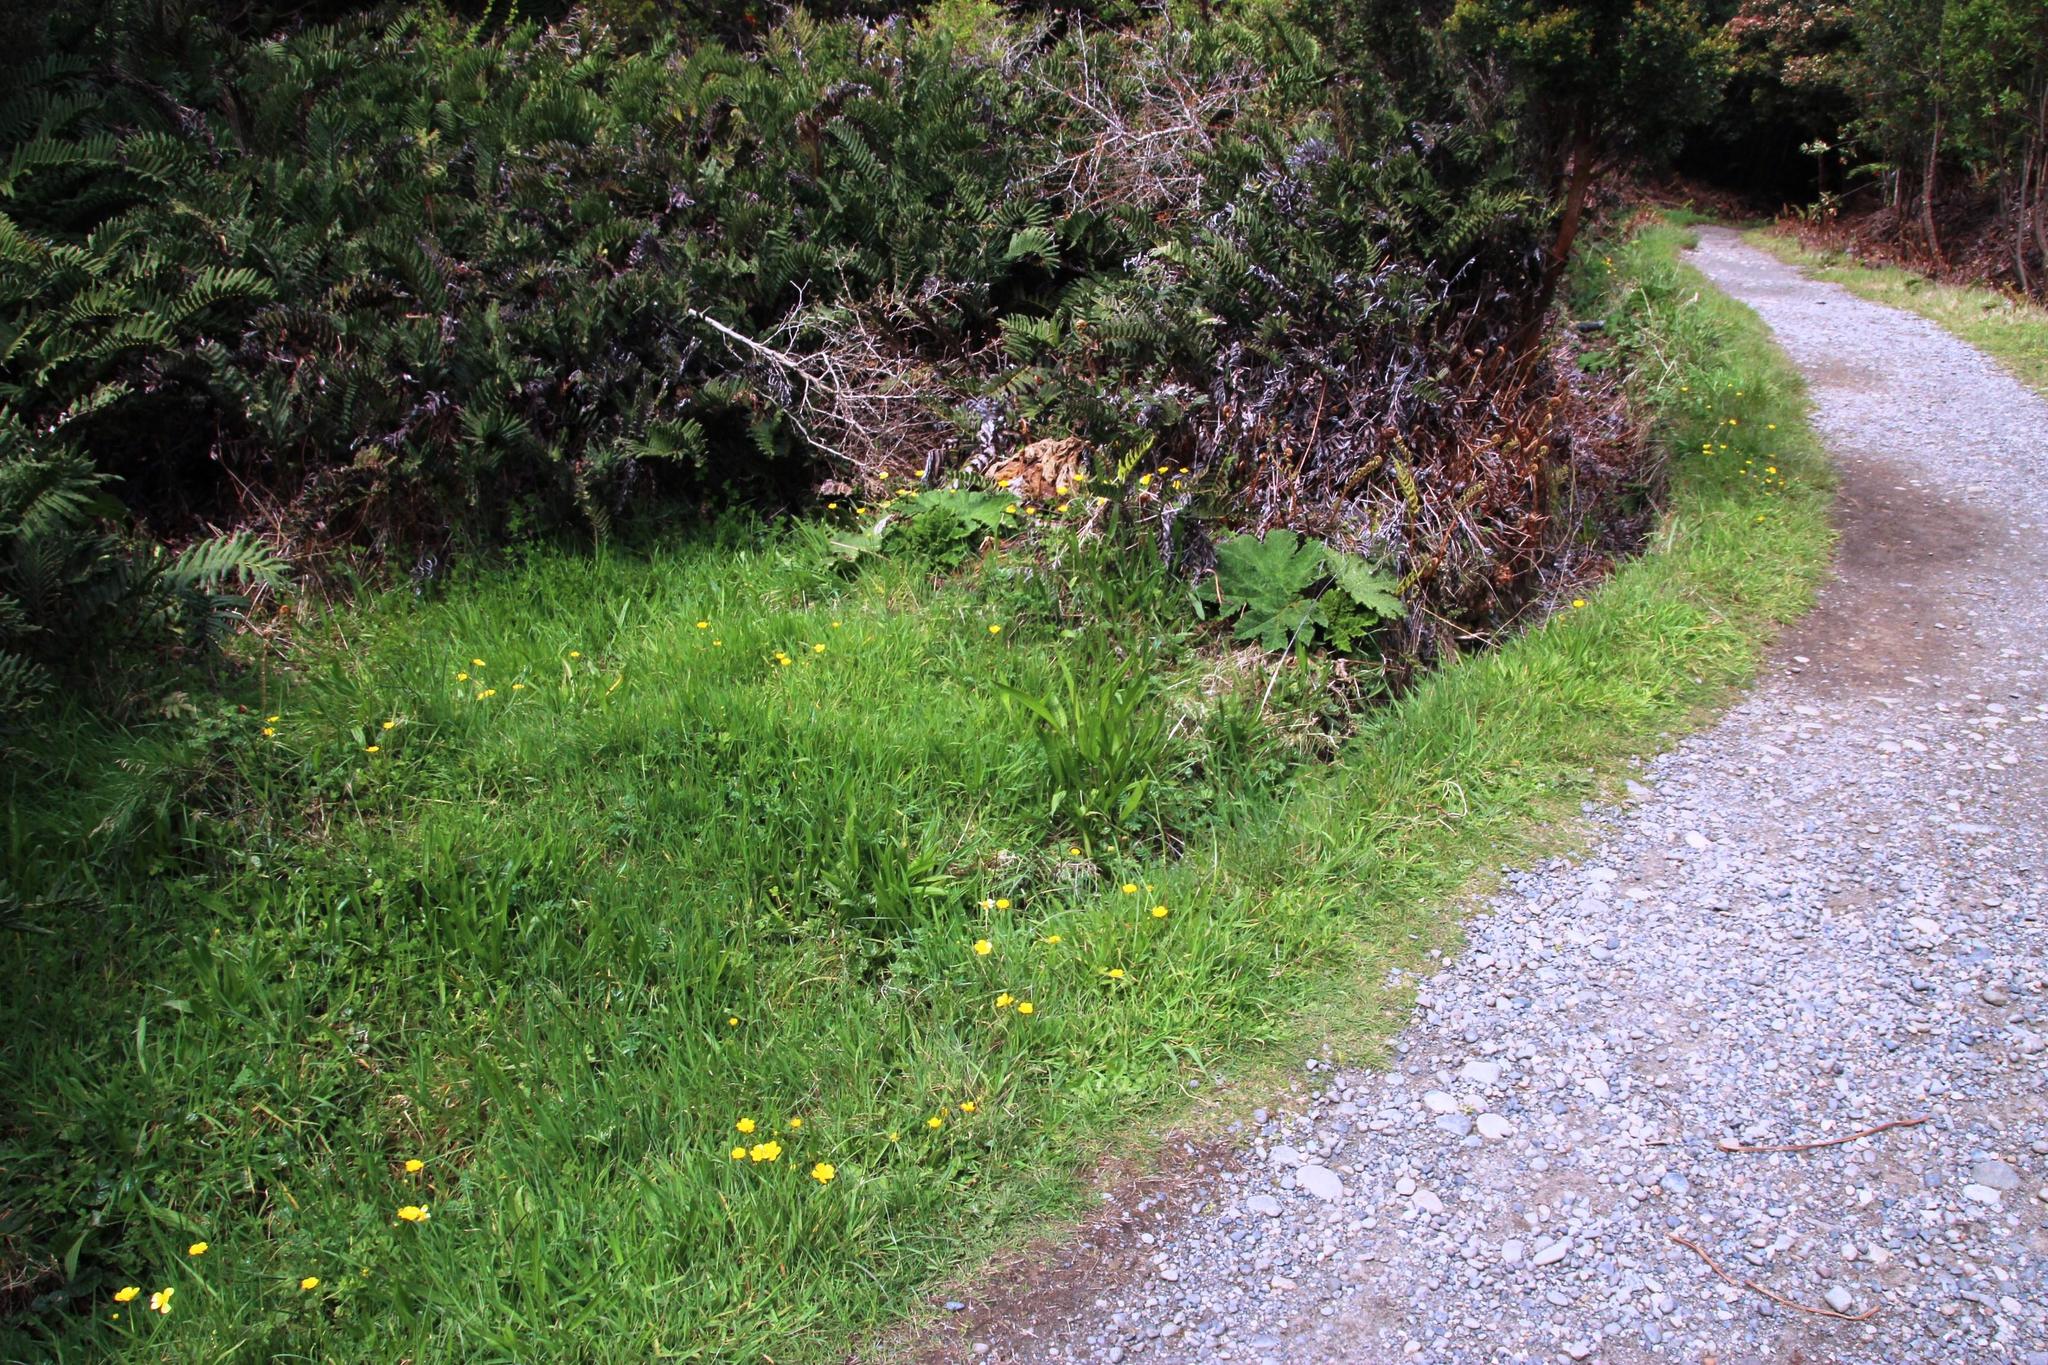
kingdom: Plantae
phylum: Tracheophyta
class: Magnoliopsida
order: Ranunculales
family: Ranunculaceae
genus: Ranunculus
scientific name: Ranunculus repens
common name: Creeping buttercup
